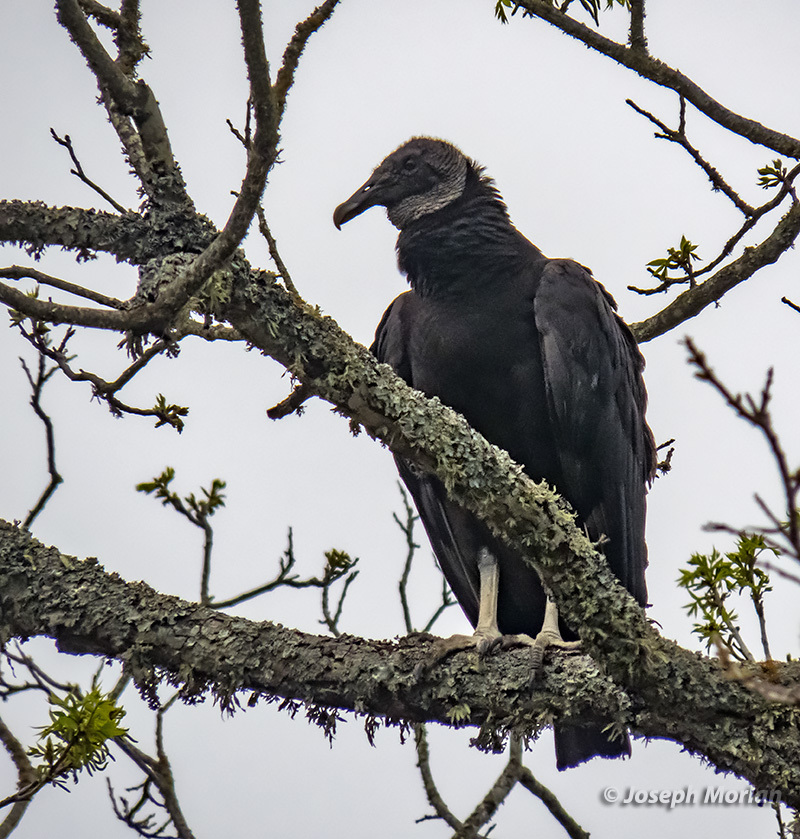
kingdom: Animalia
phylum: Chordata
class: Aves
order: Accipitriformes
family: Cathartidae
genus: Coragyps
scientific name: Coragyps atratus
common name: Black vulture
